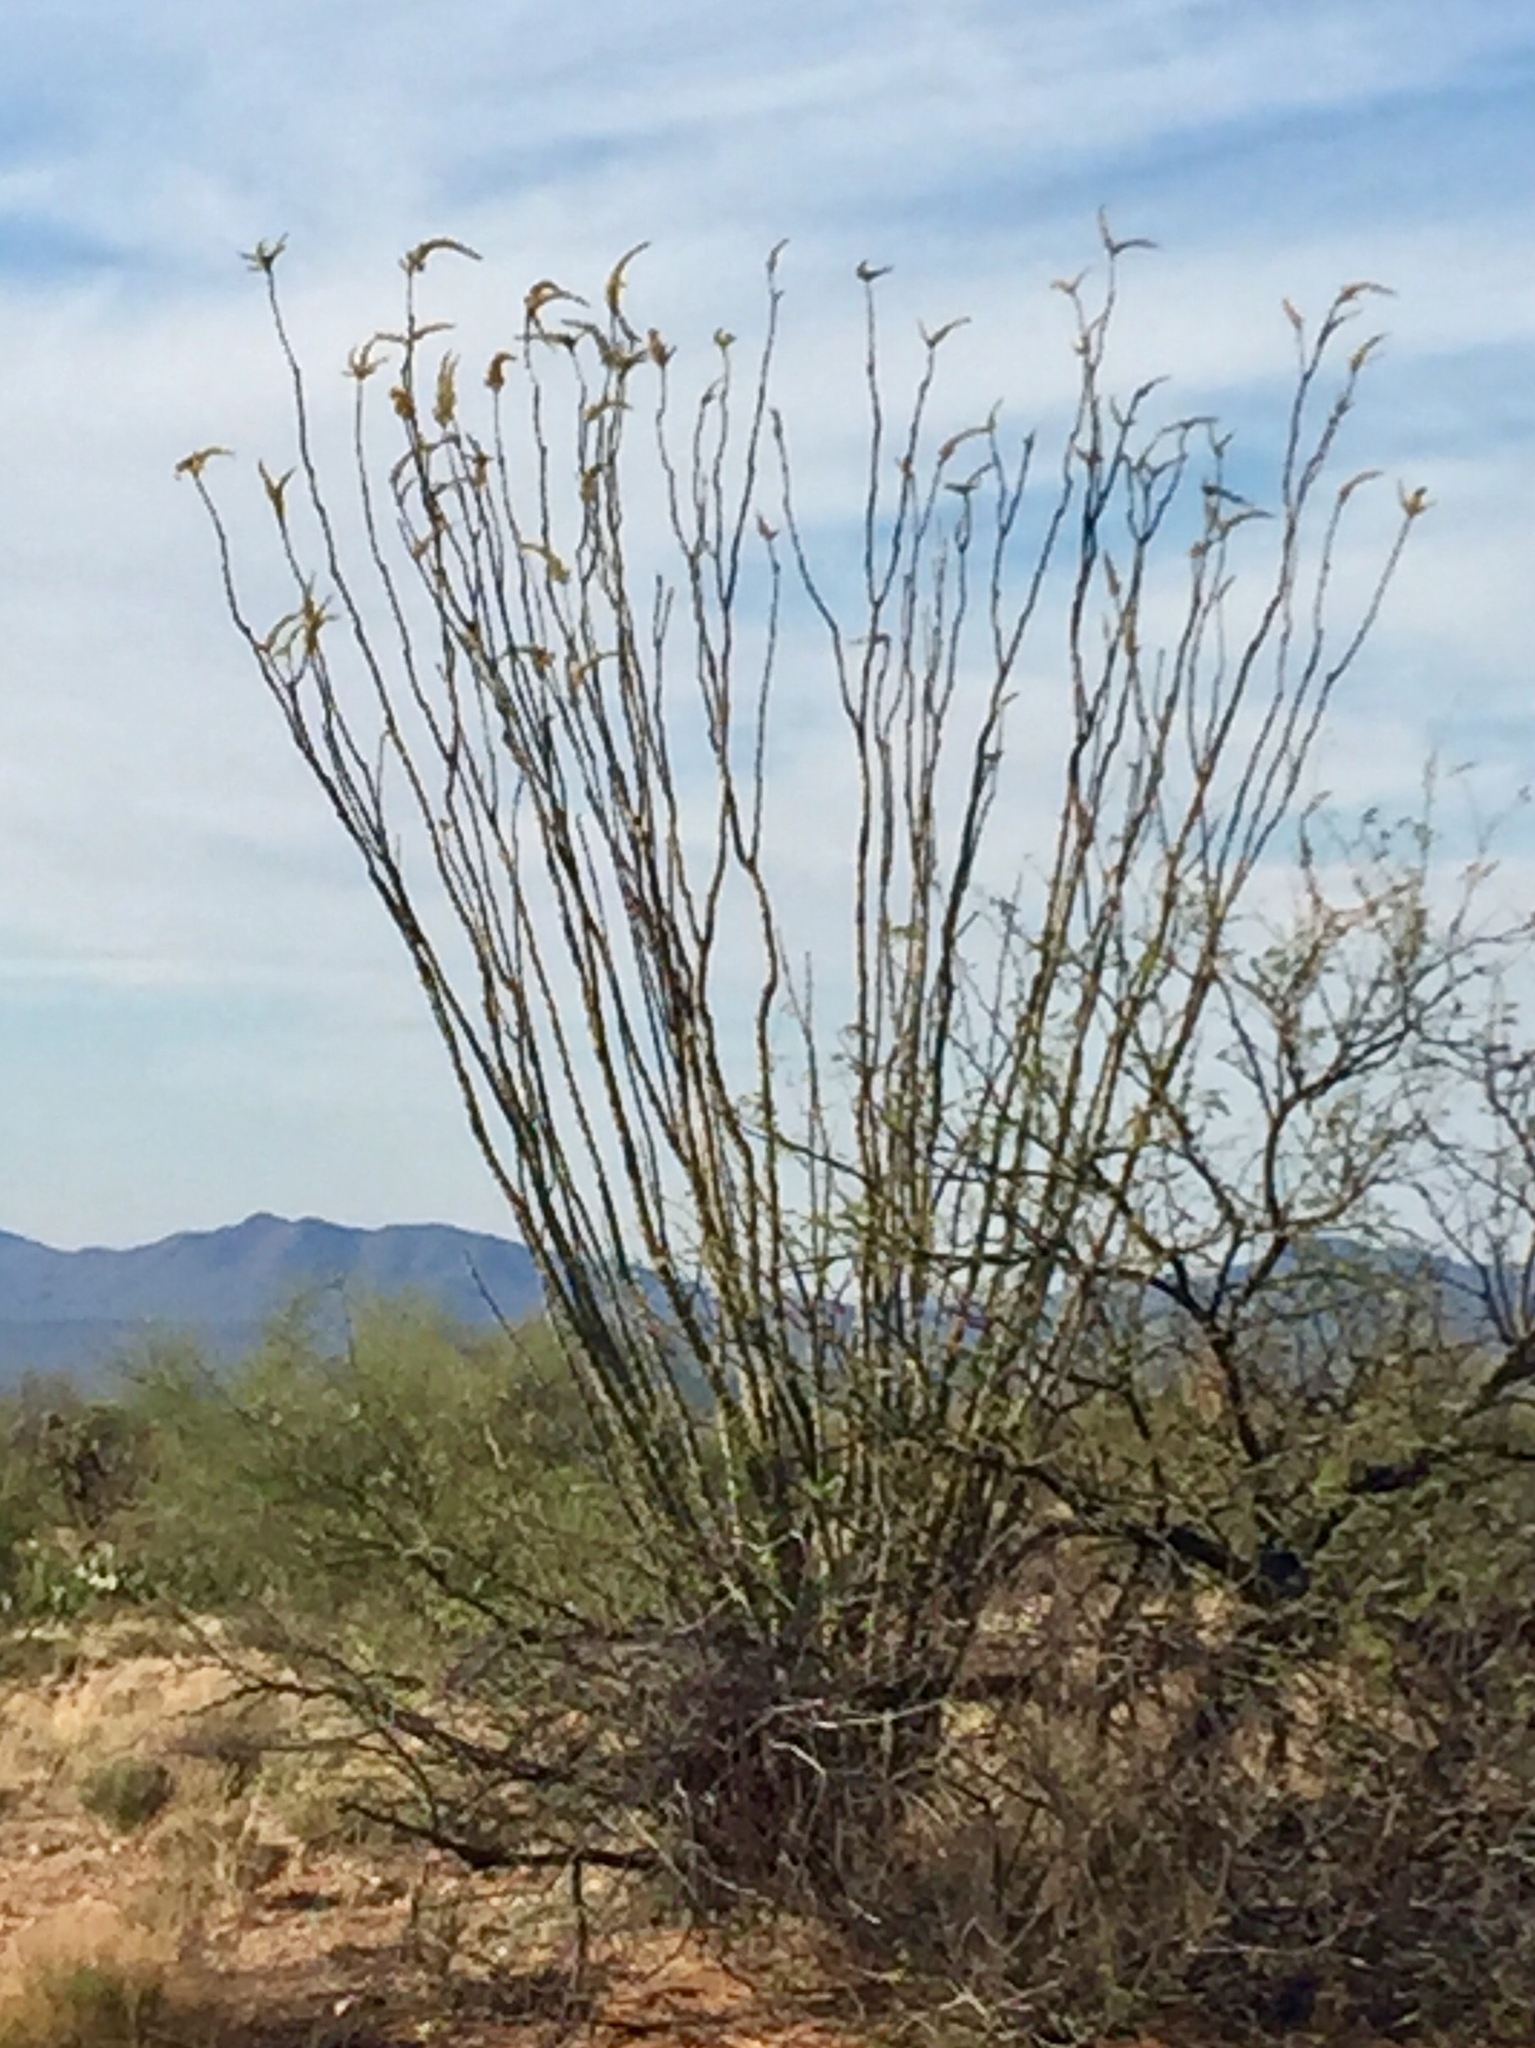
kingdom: Plantae
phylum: Tracheophyta
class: Magnoliopsida
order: Ericales
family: Fouquieriaceae
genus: Fouquieria
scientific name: Fouquieria splendens
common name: Vine-cactus
